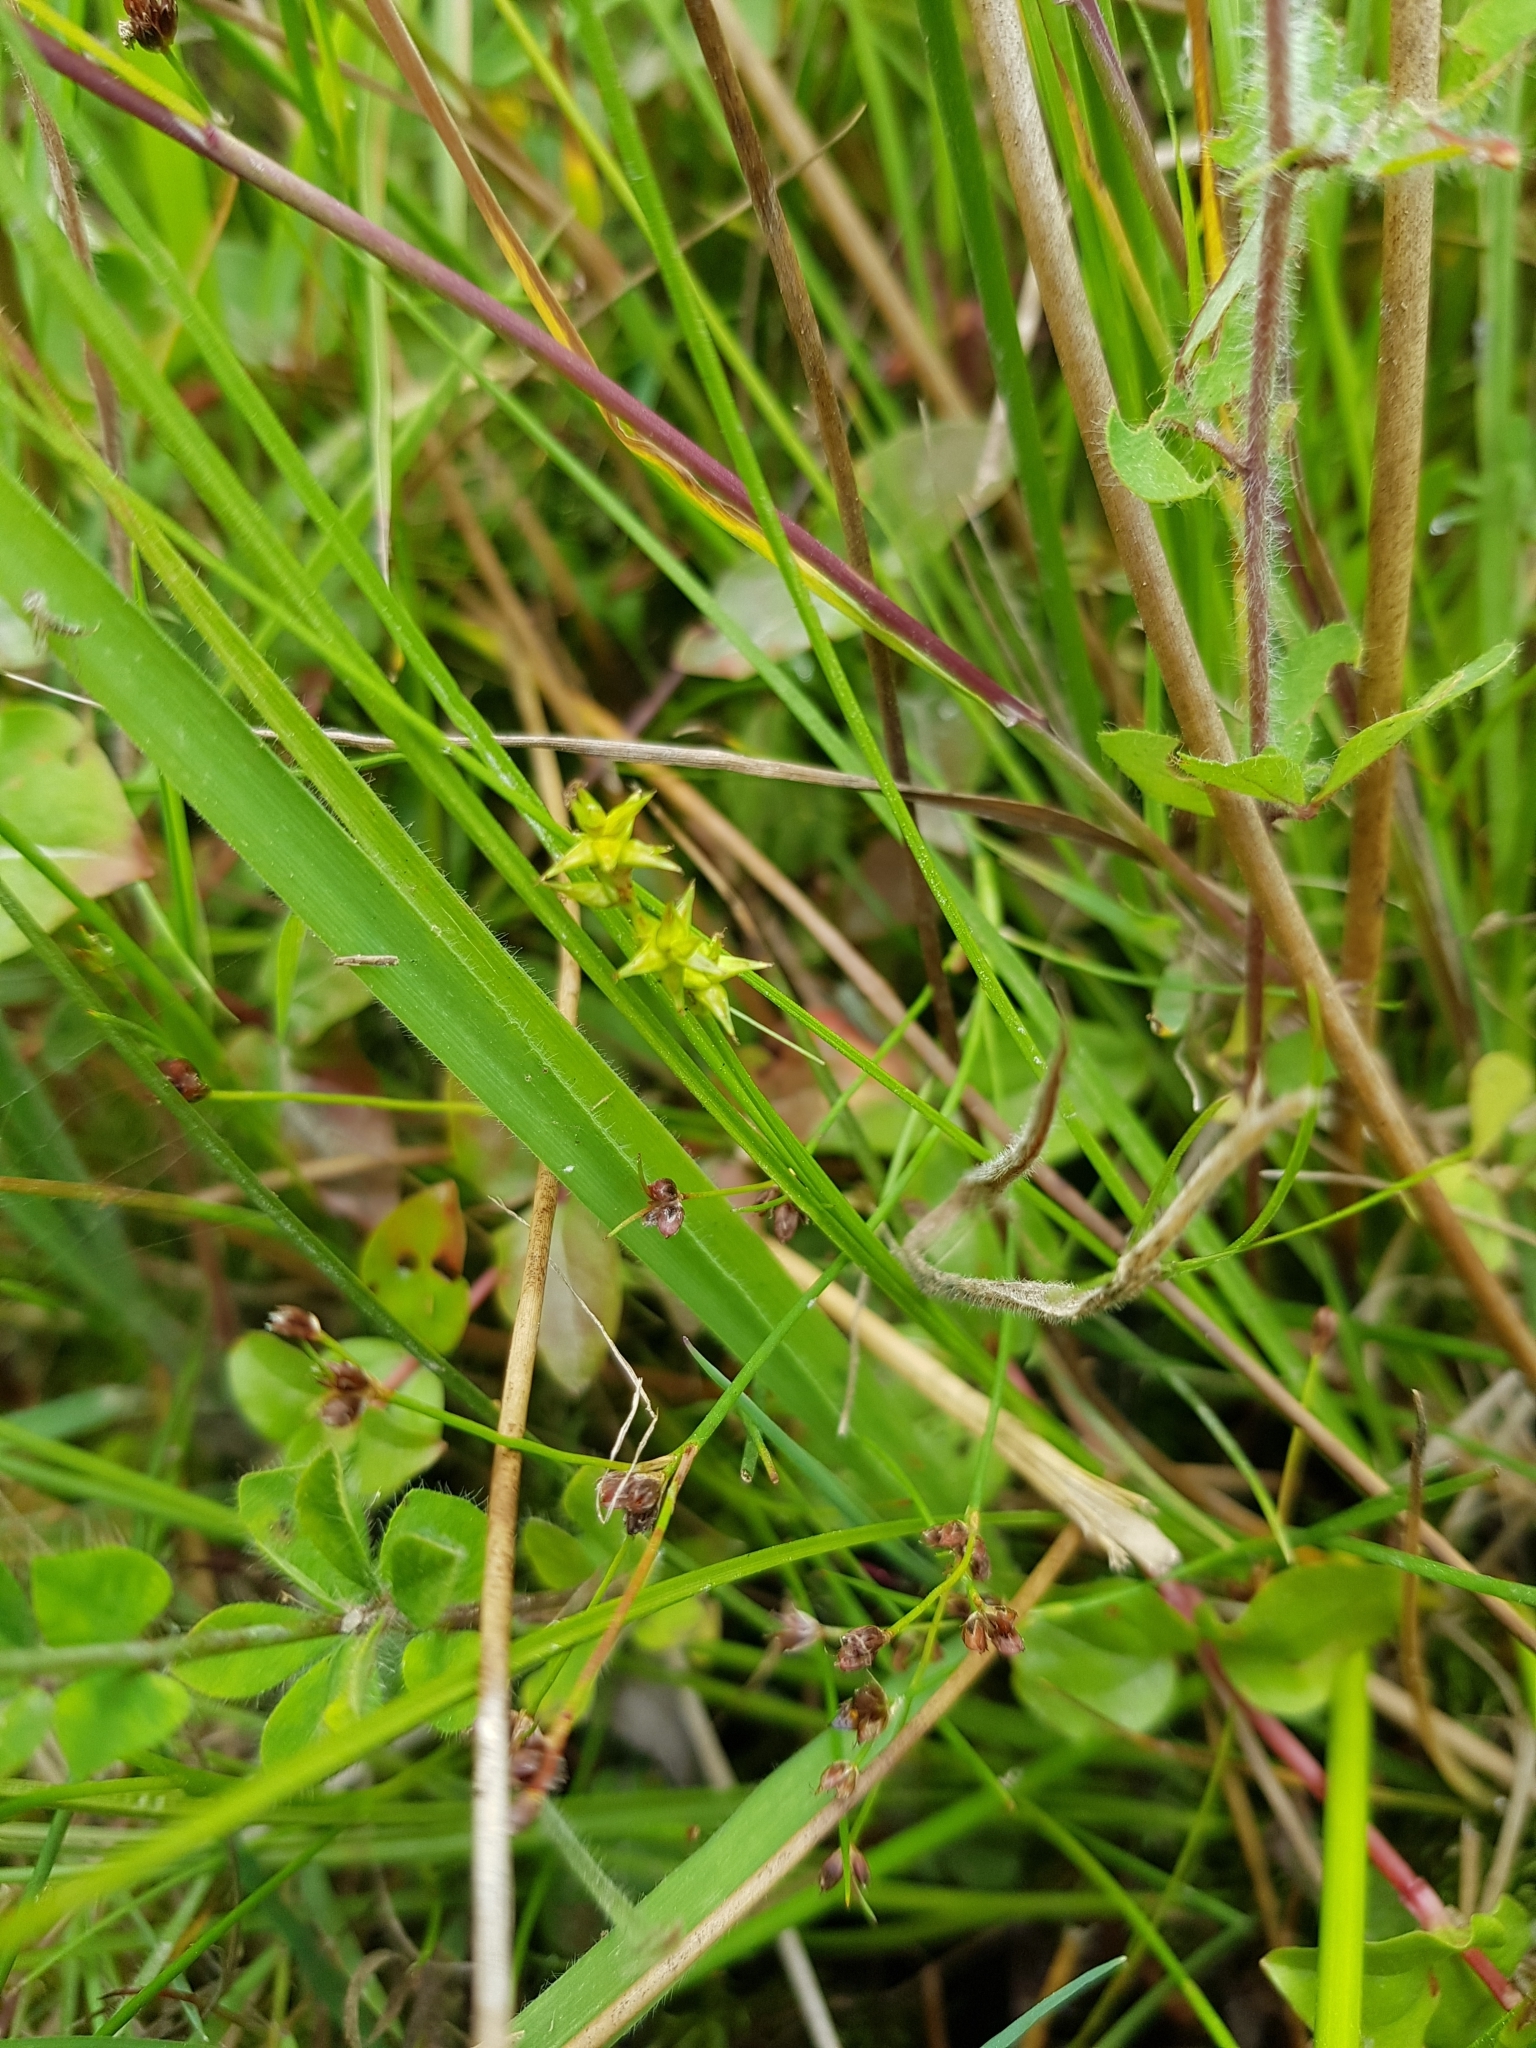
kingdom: Plantae
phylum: Tracheophyta
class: Liliopsida
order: Poales
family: Cyperaceae
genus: Carex
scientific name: Carex echinata
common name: Star sedge
